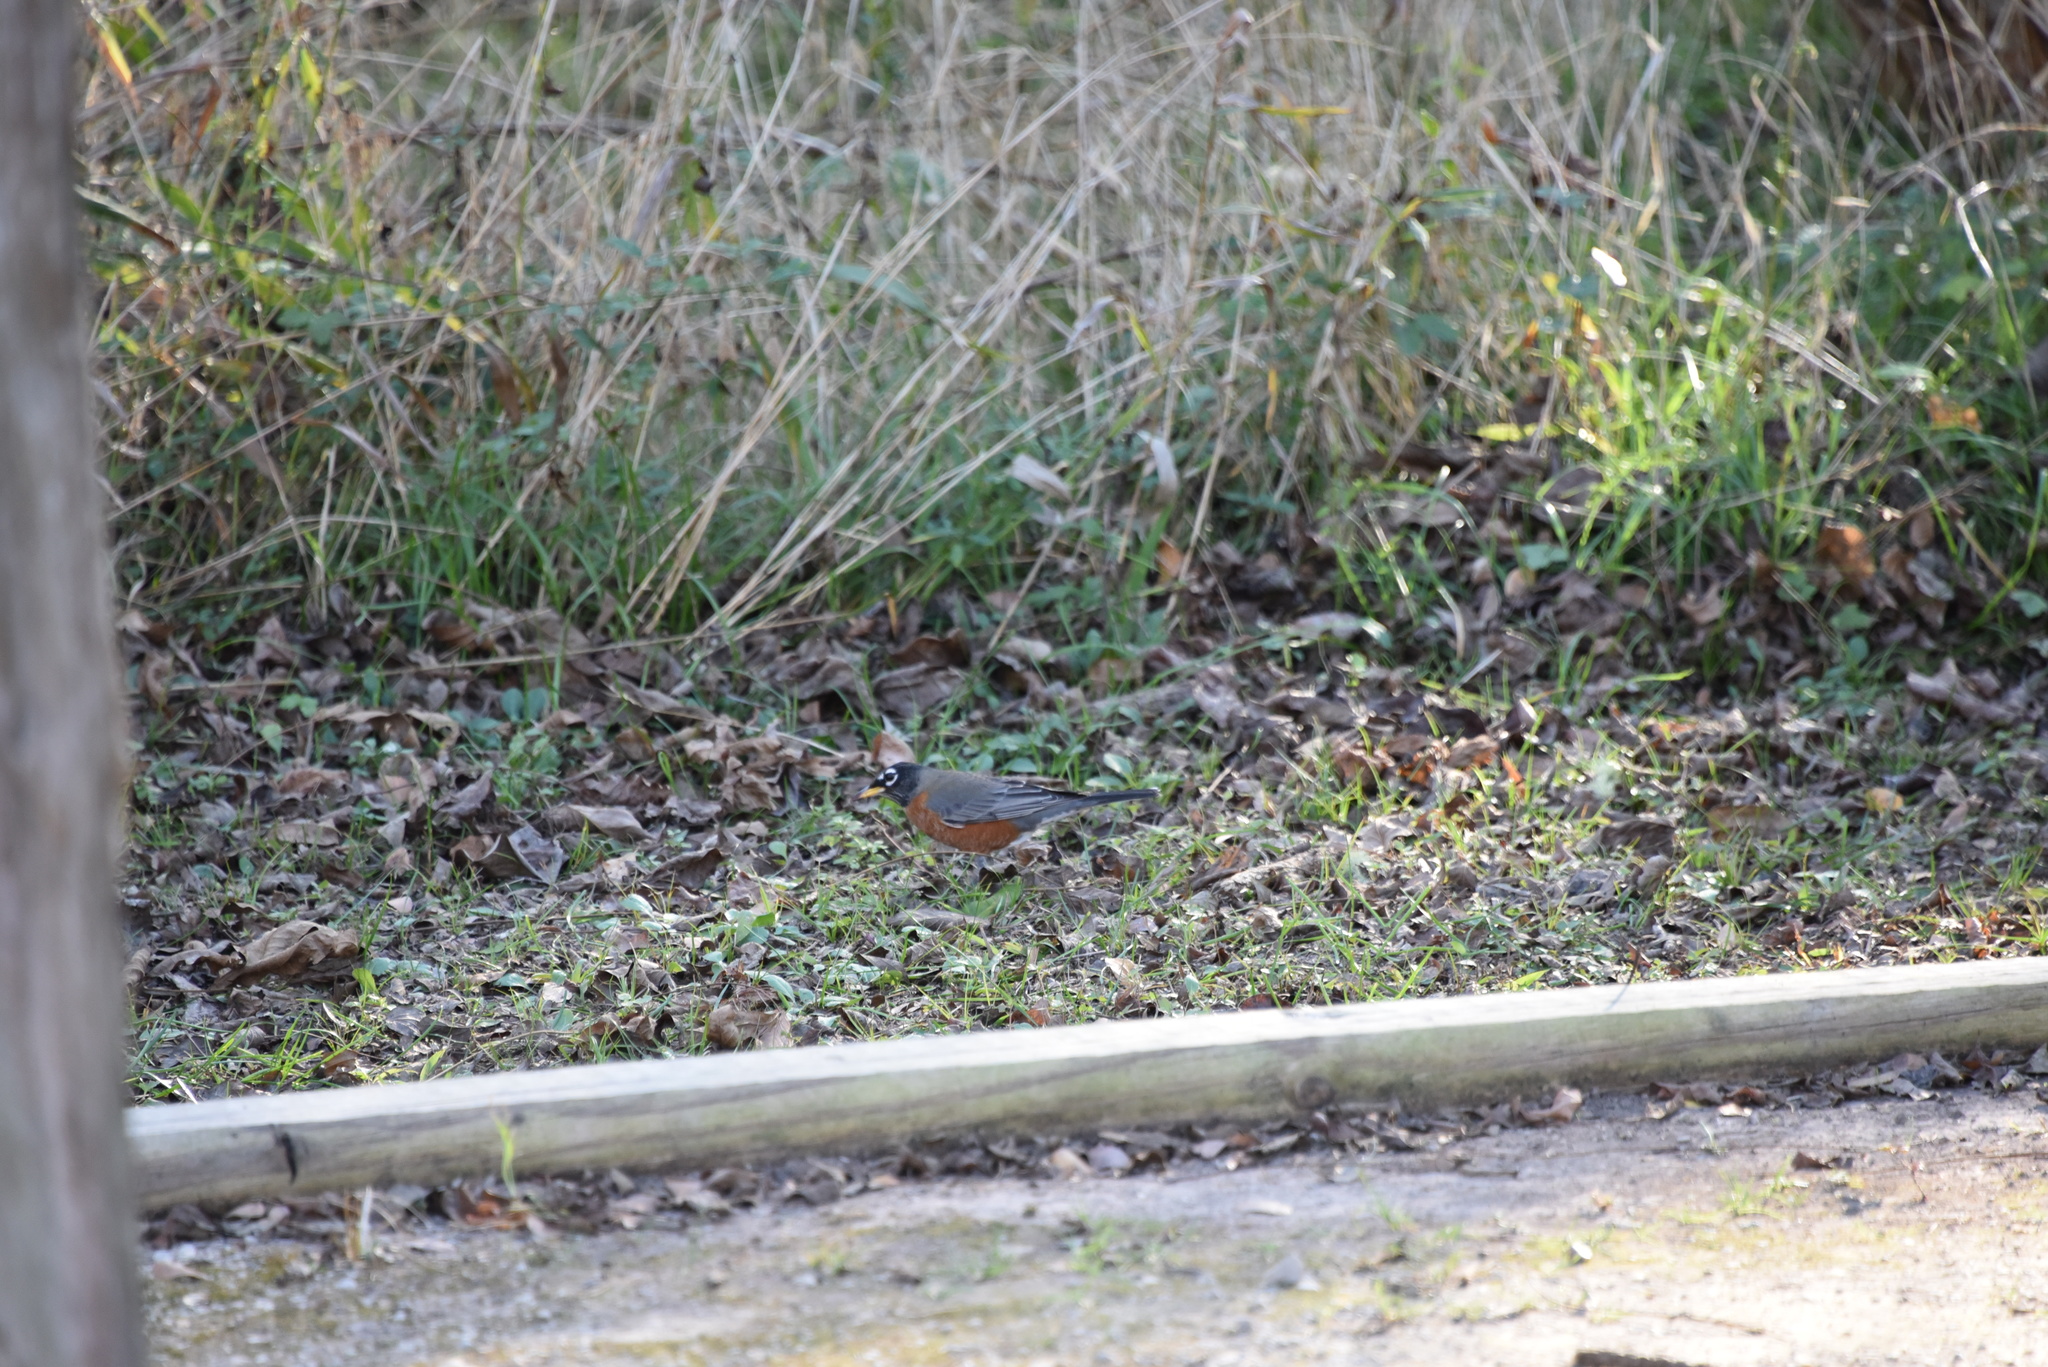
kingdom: Animalia
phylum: Chordata
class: Aves
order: Passeriformes
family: Turdidae
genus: Turdus
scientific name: Turdus migratorius
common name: American robin
